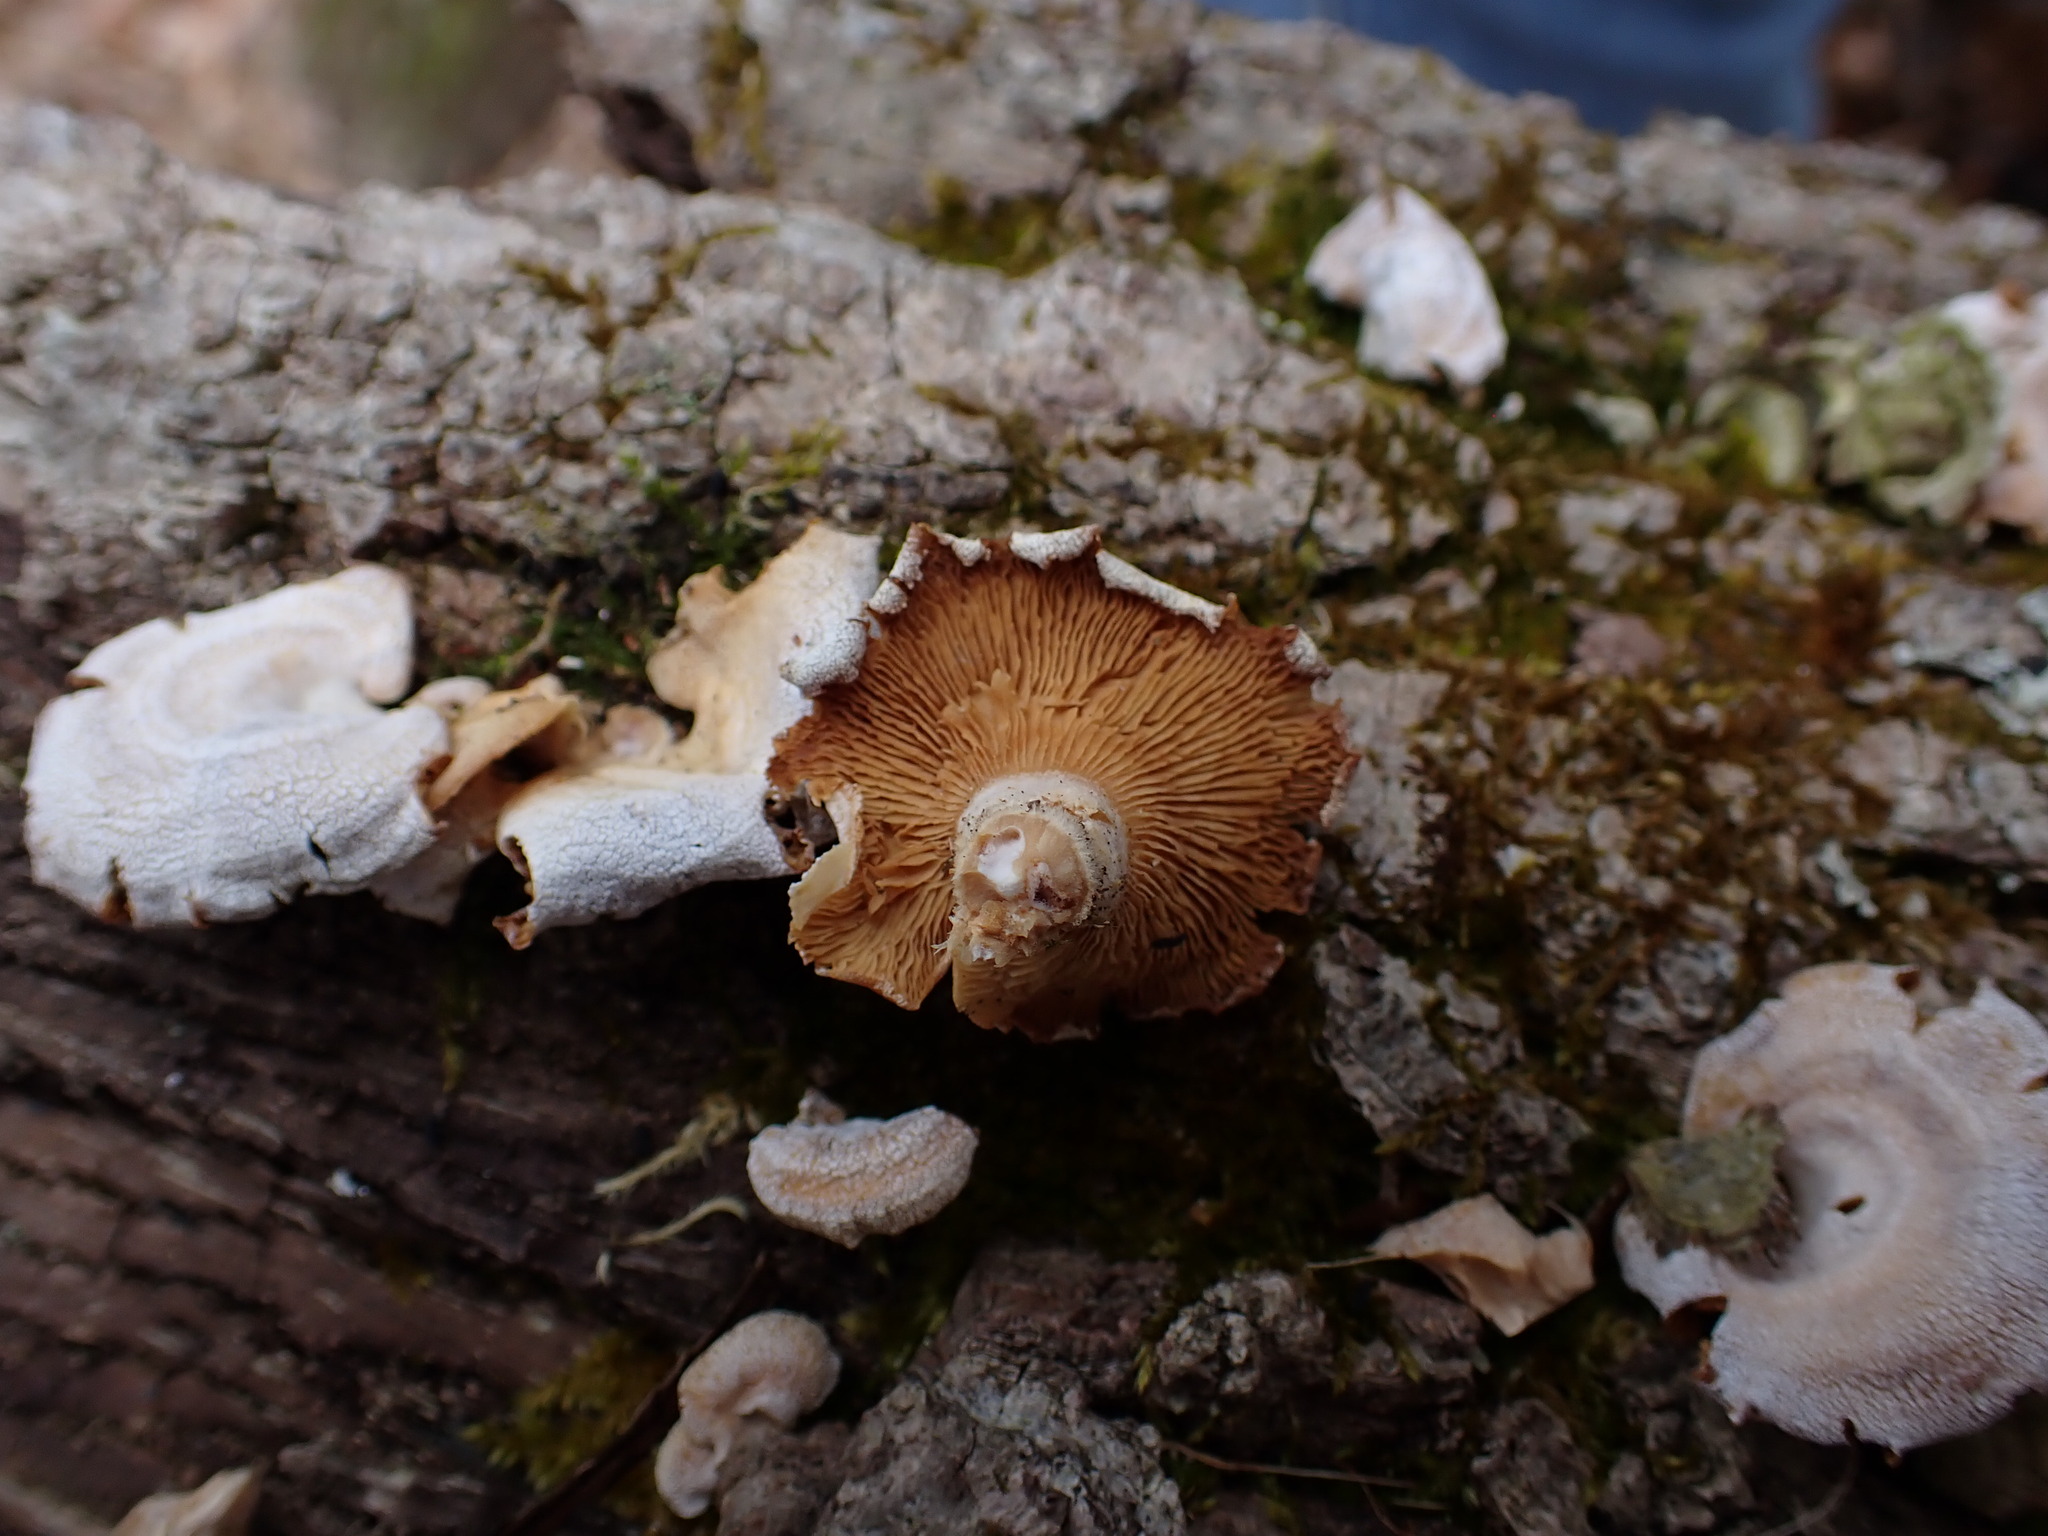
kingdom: Fungi
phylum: Basidiomycota
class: Agaricomycetes
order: Agaricales
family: Mycenaceae
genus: Panellus
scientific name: Panellus stipticus
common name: Bitter oysterling
